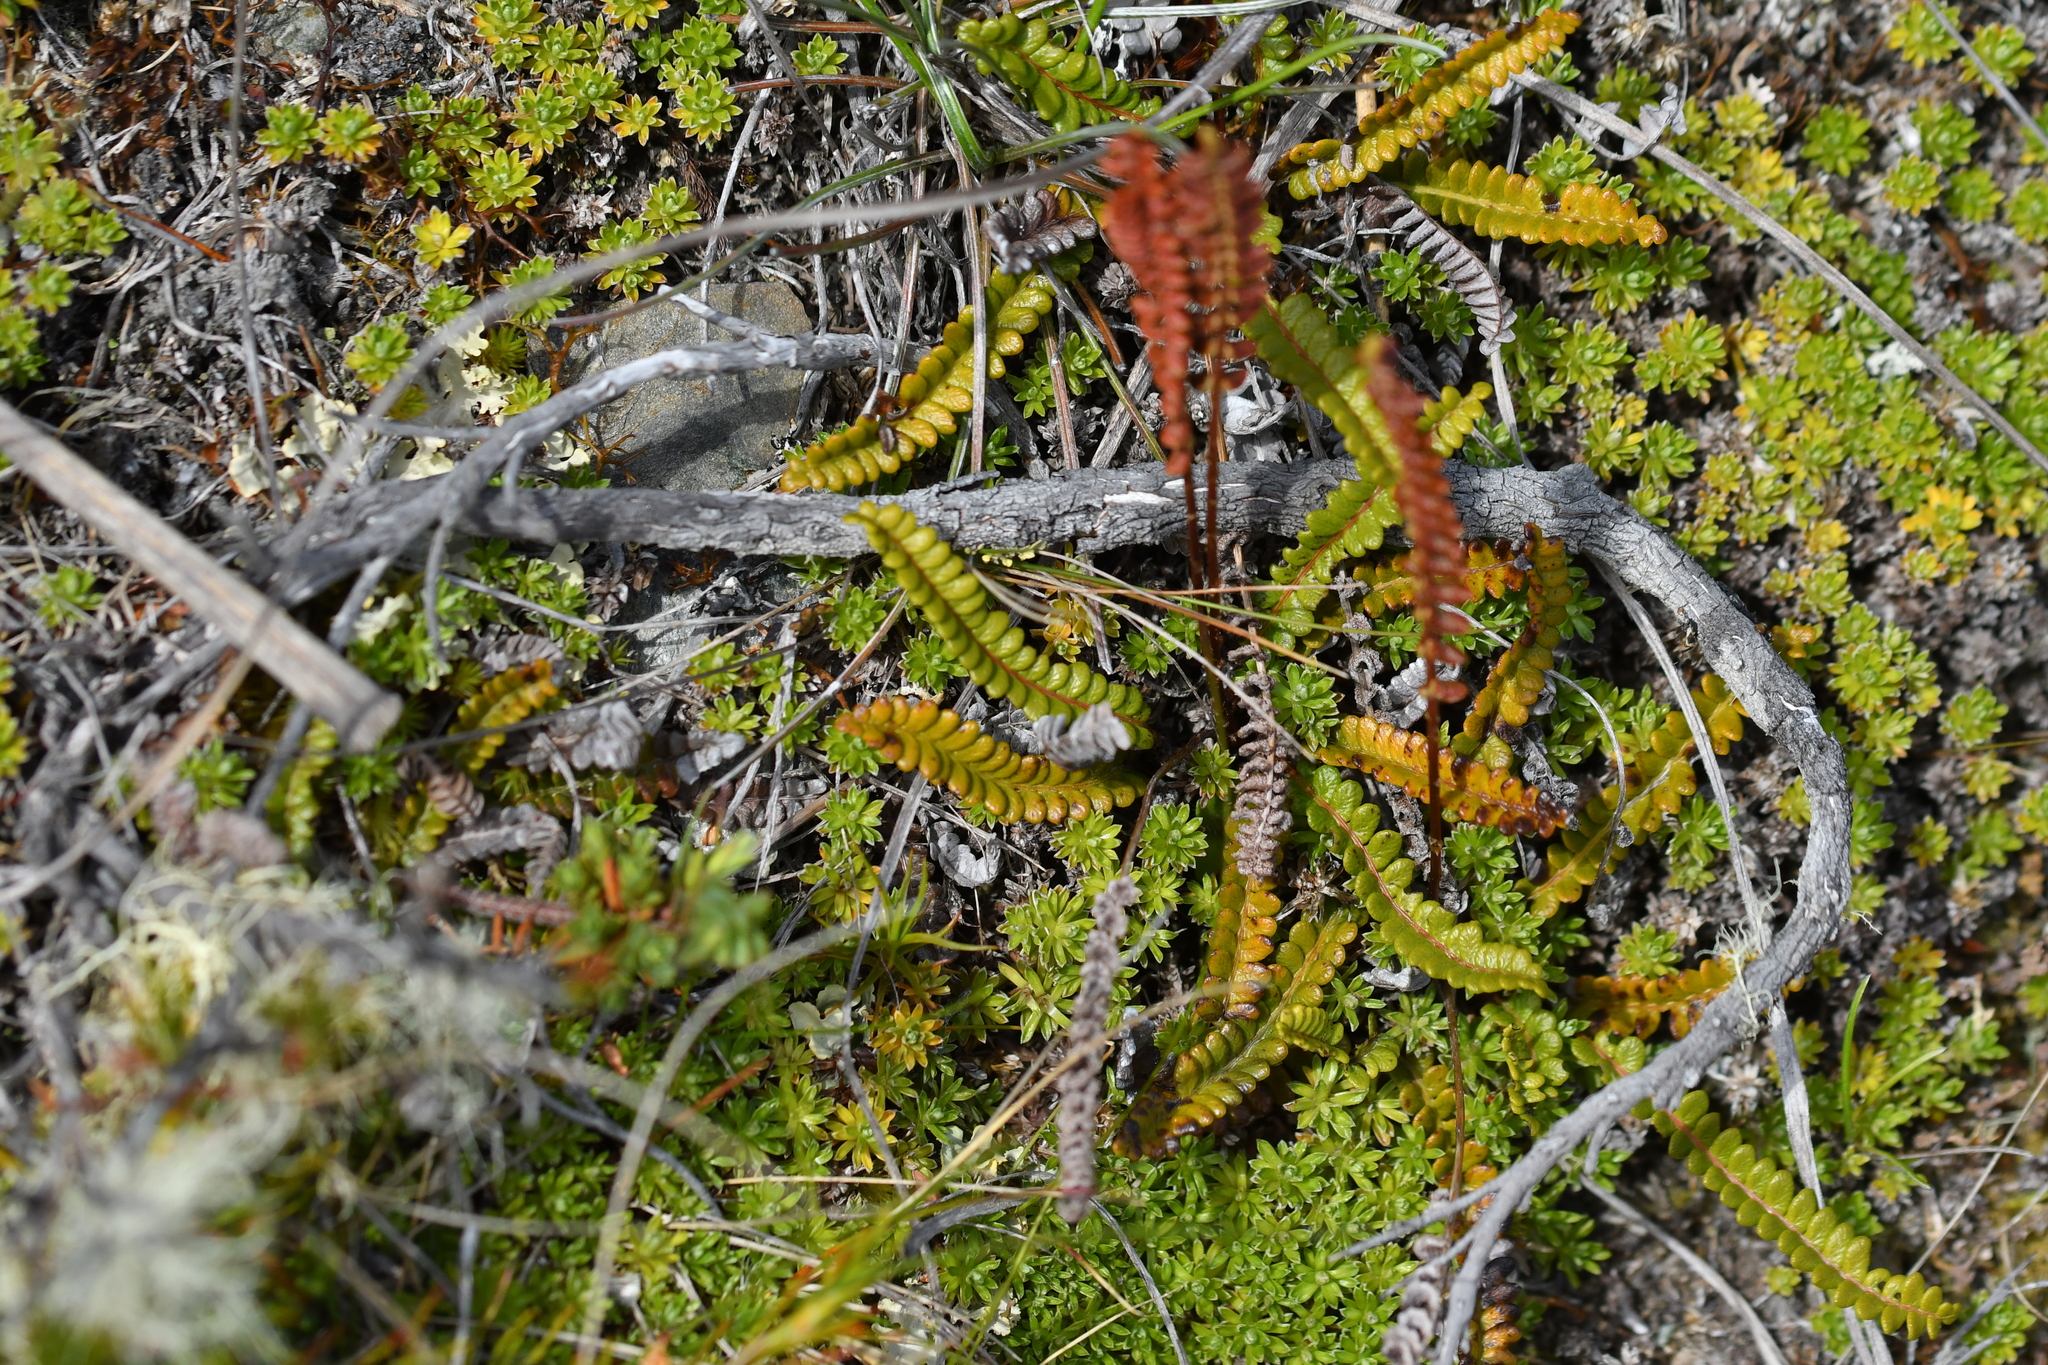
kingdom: Plantae
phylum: Tracheophyta
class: Polypodiopsida
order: Polypodiales
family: Blechnaceae
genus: Austroblechnum
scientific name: Austroblechnum penna-marina
